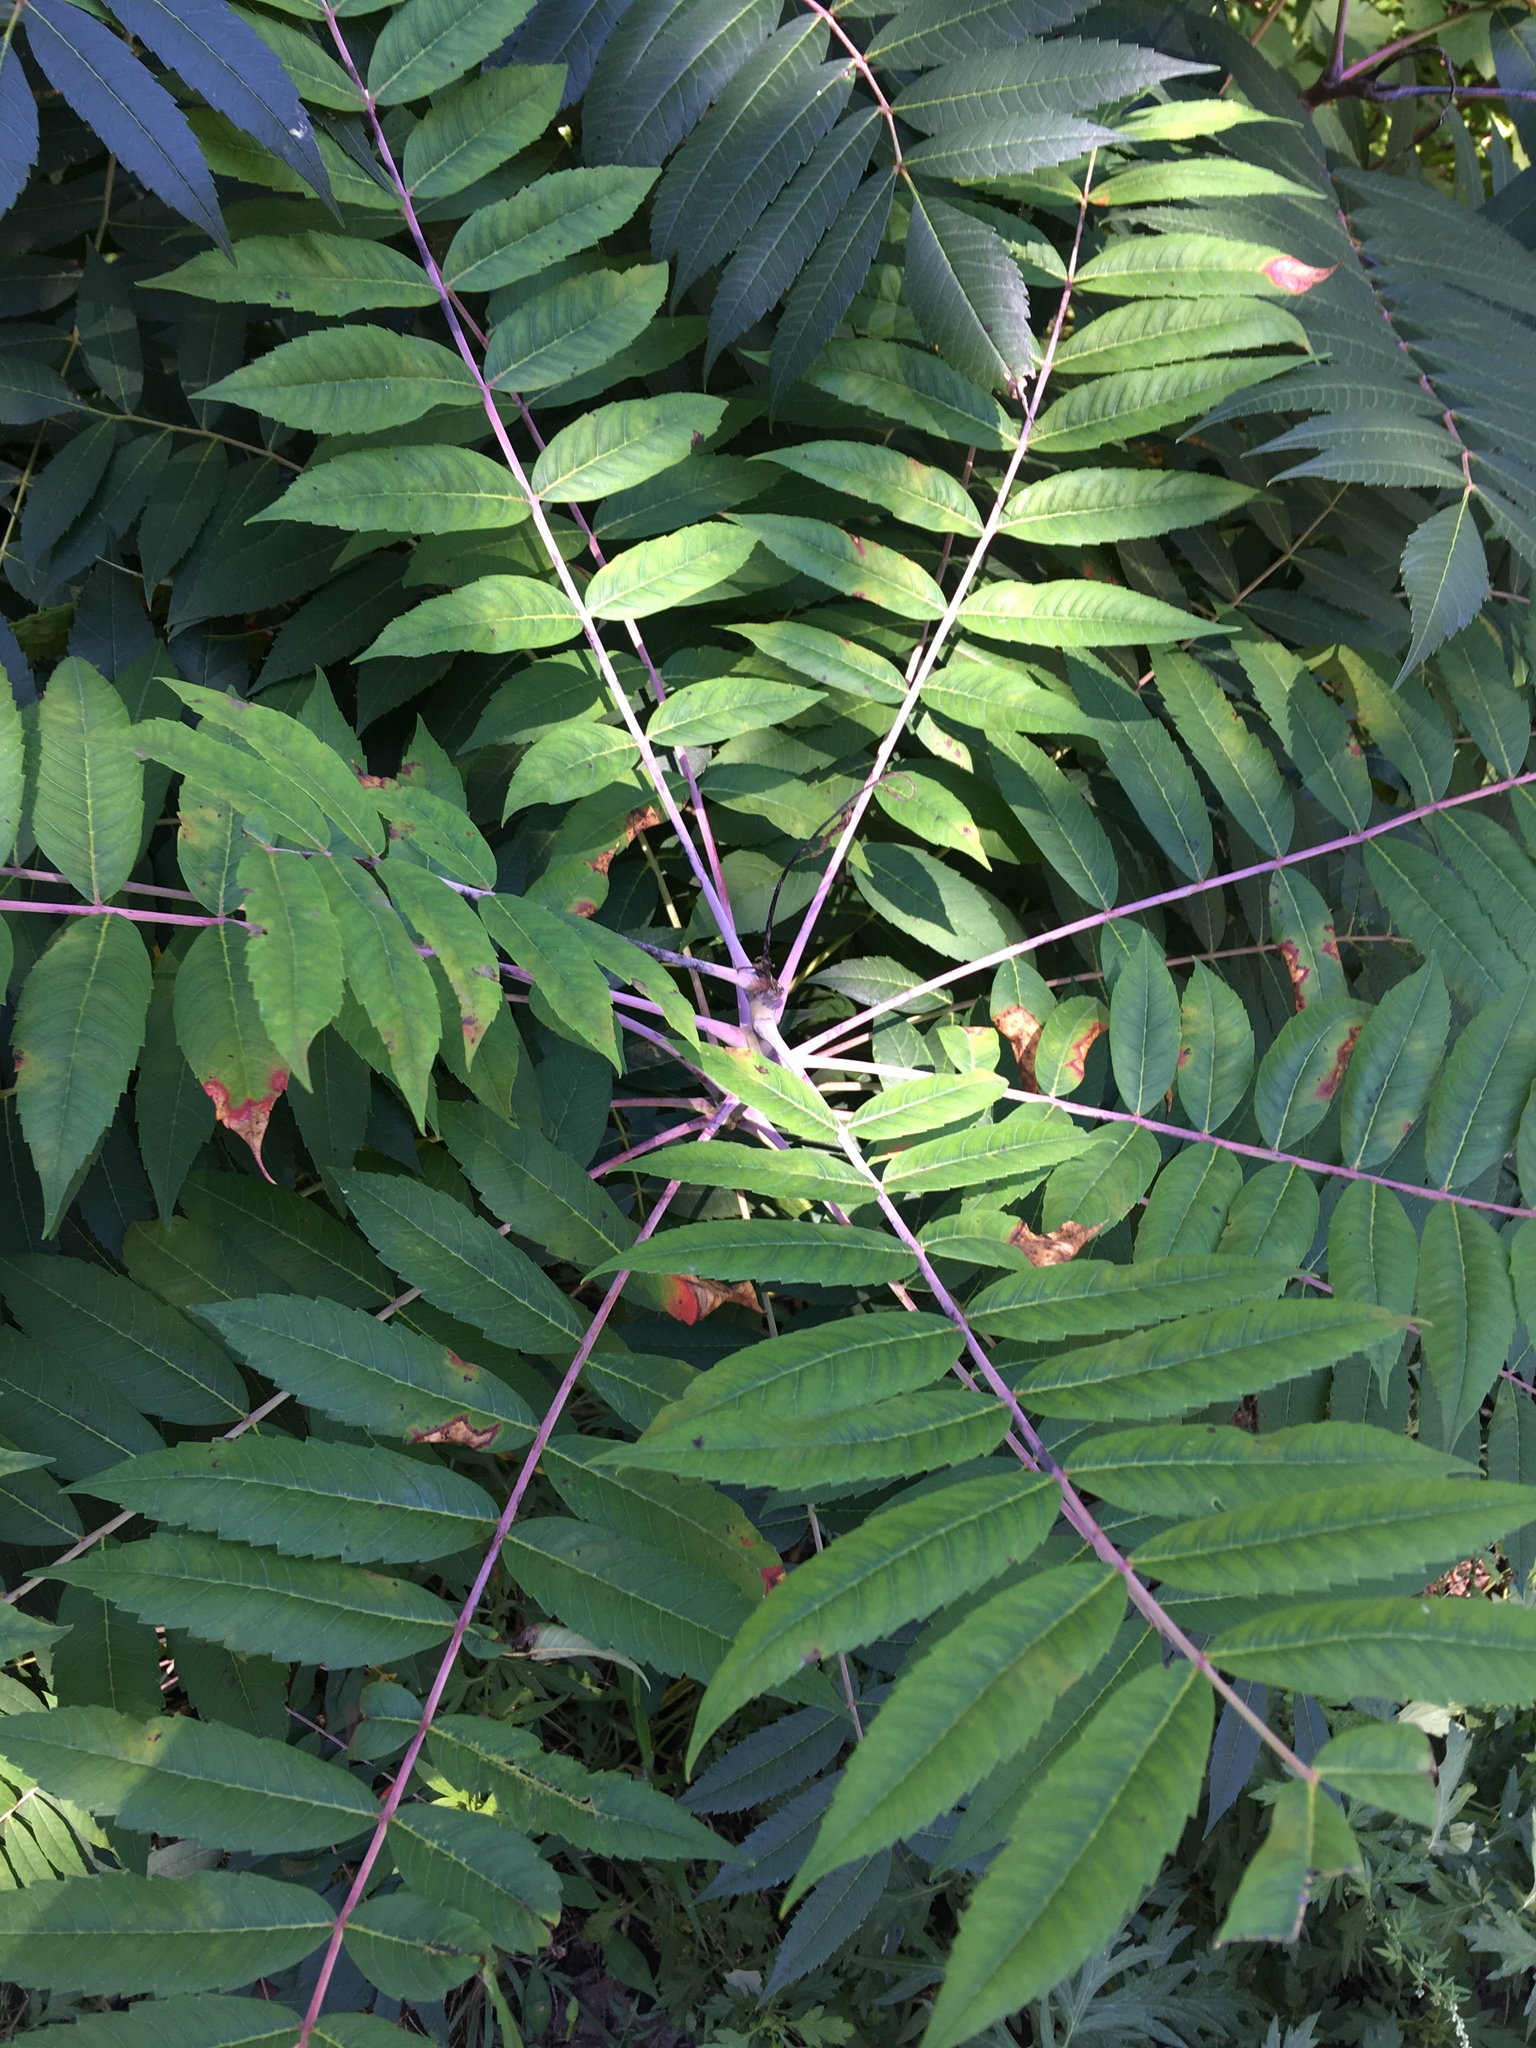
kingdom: Plantae
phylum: Tracheophyta
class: Magnoliopsida
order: Sapindales
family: Anacardiaceae
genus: Rhus
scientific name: Rhus glabra
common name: Scarlet sumac
